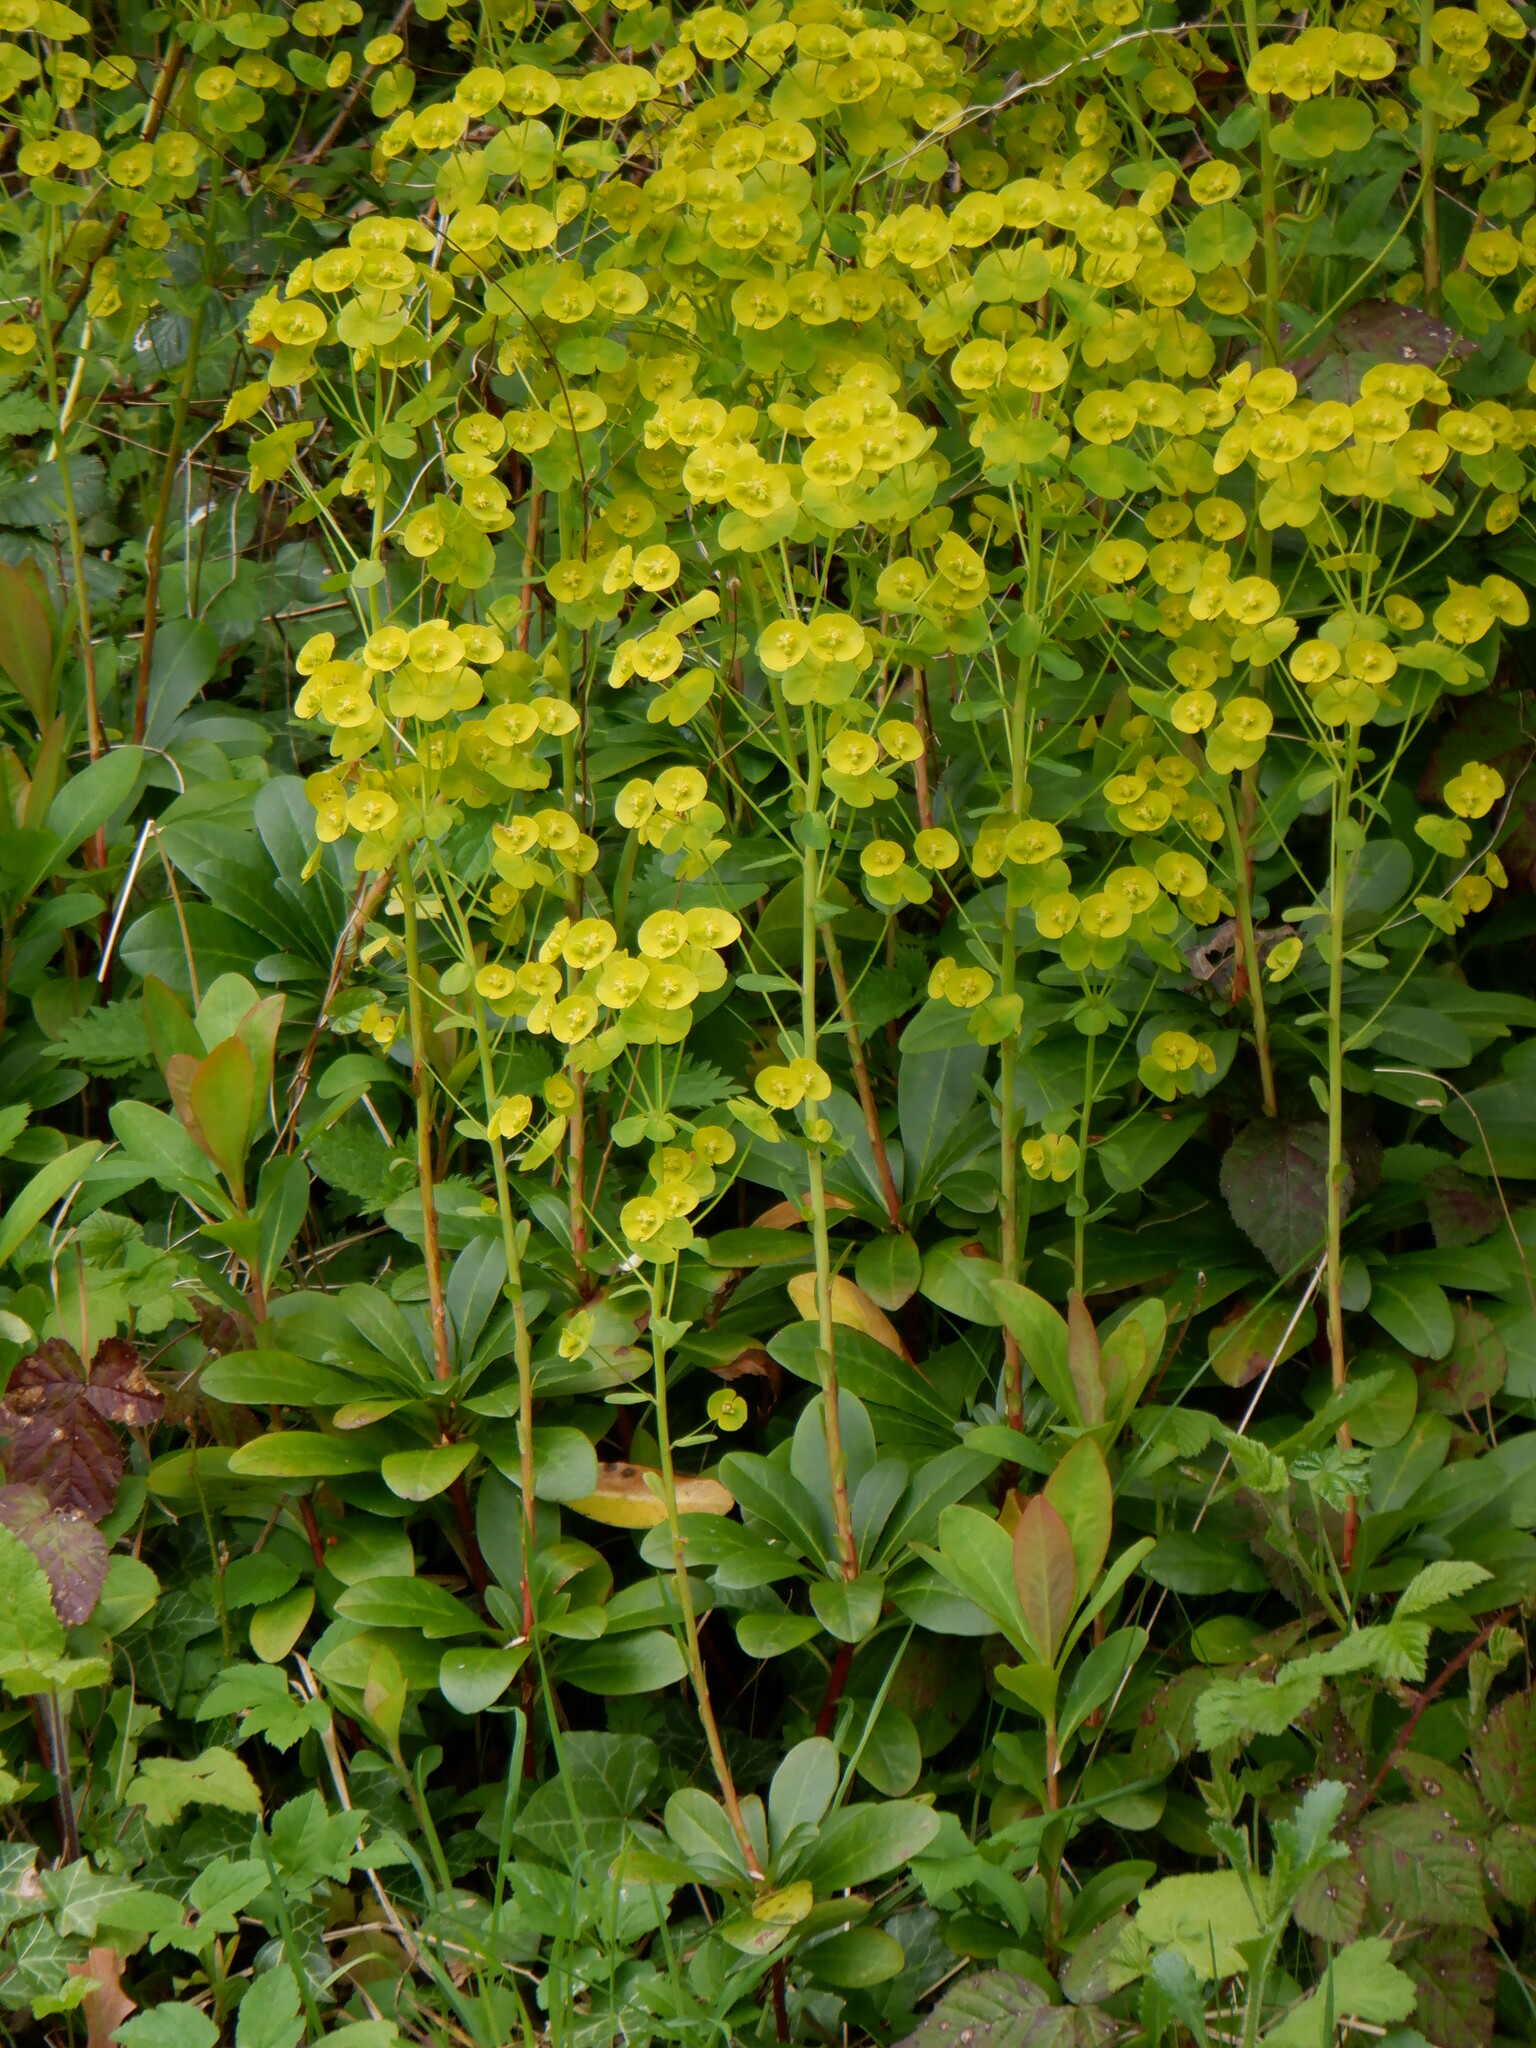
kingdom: Plantae
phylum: Tracheophyta
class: Magnoliopsida
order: Malpighiales
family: Euphorbiaceae
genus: Euphorbia
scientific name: Euphorbia amygdaloides
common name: Wood spurge
